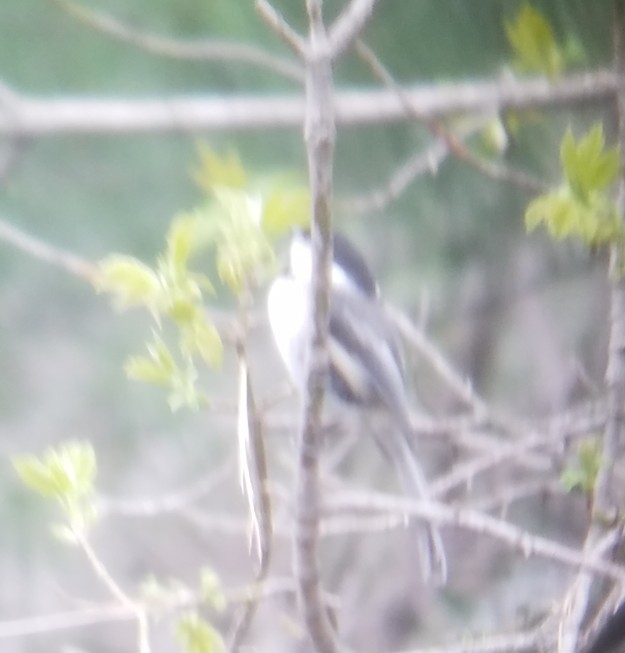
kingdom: Animalia
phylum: Chordata
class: Aves
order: Passeriformes
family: Paridae
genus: Poecile
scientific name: Poecile atricapillus
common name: Black-capped chickadee
